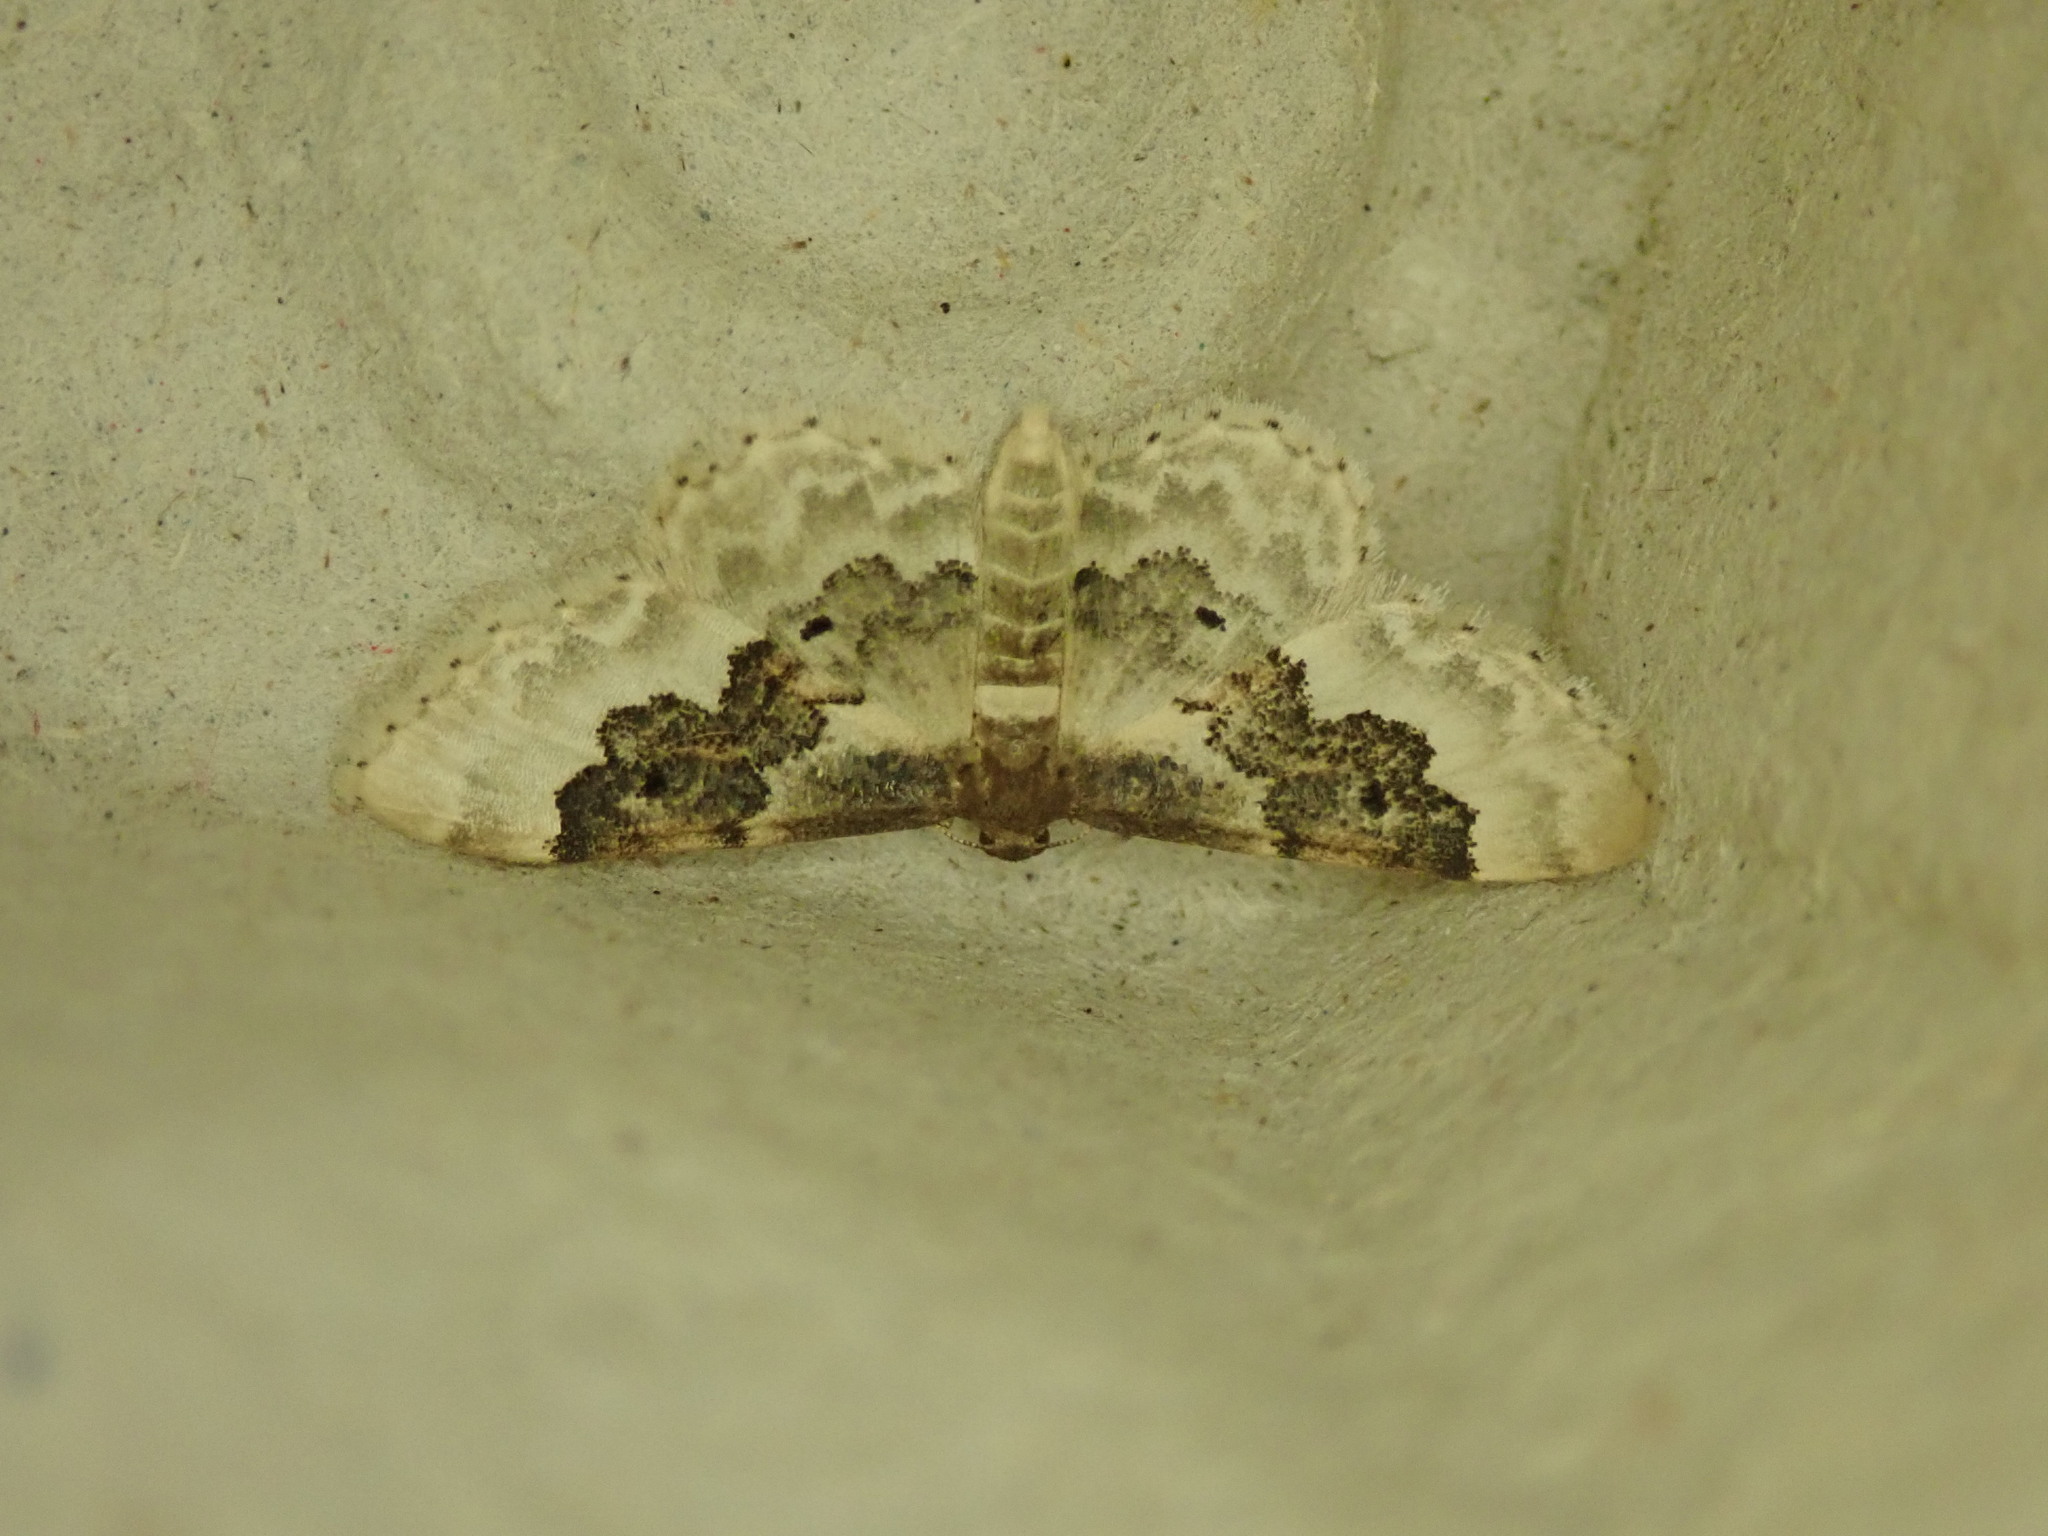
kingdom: Animalia
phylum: Arthropoda
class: Insecta
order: Lepidoptera
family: Geometridae
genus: Idaea
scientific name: Idaea rusticata
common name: Least carpet
